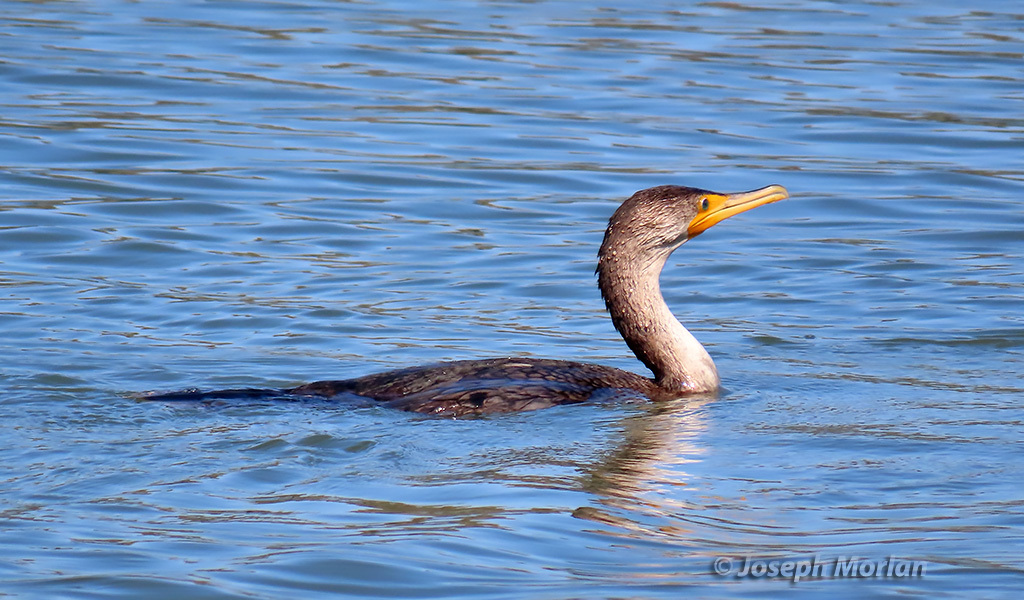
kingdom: Animalia
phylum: Chordata
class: Aves
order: Suliformes
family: Phalacrocoracidae
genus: Phalacrocorax
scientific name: Phalacrocorax auritus
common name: Double-crested cormorant
